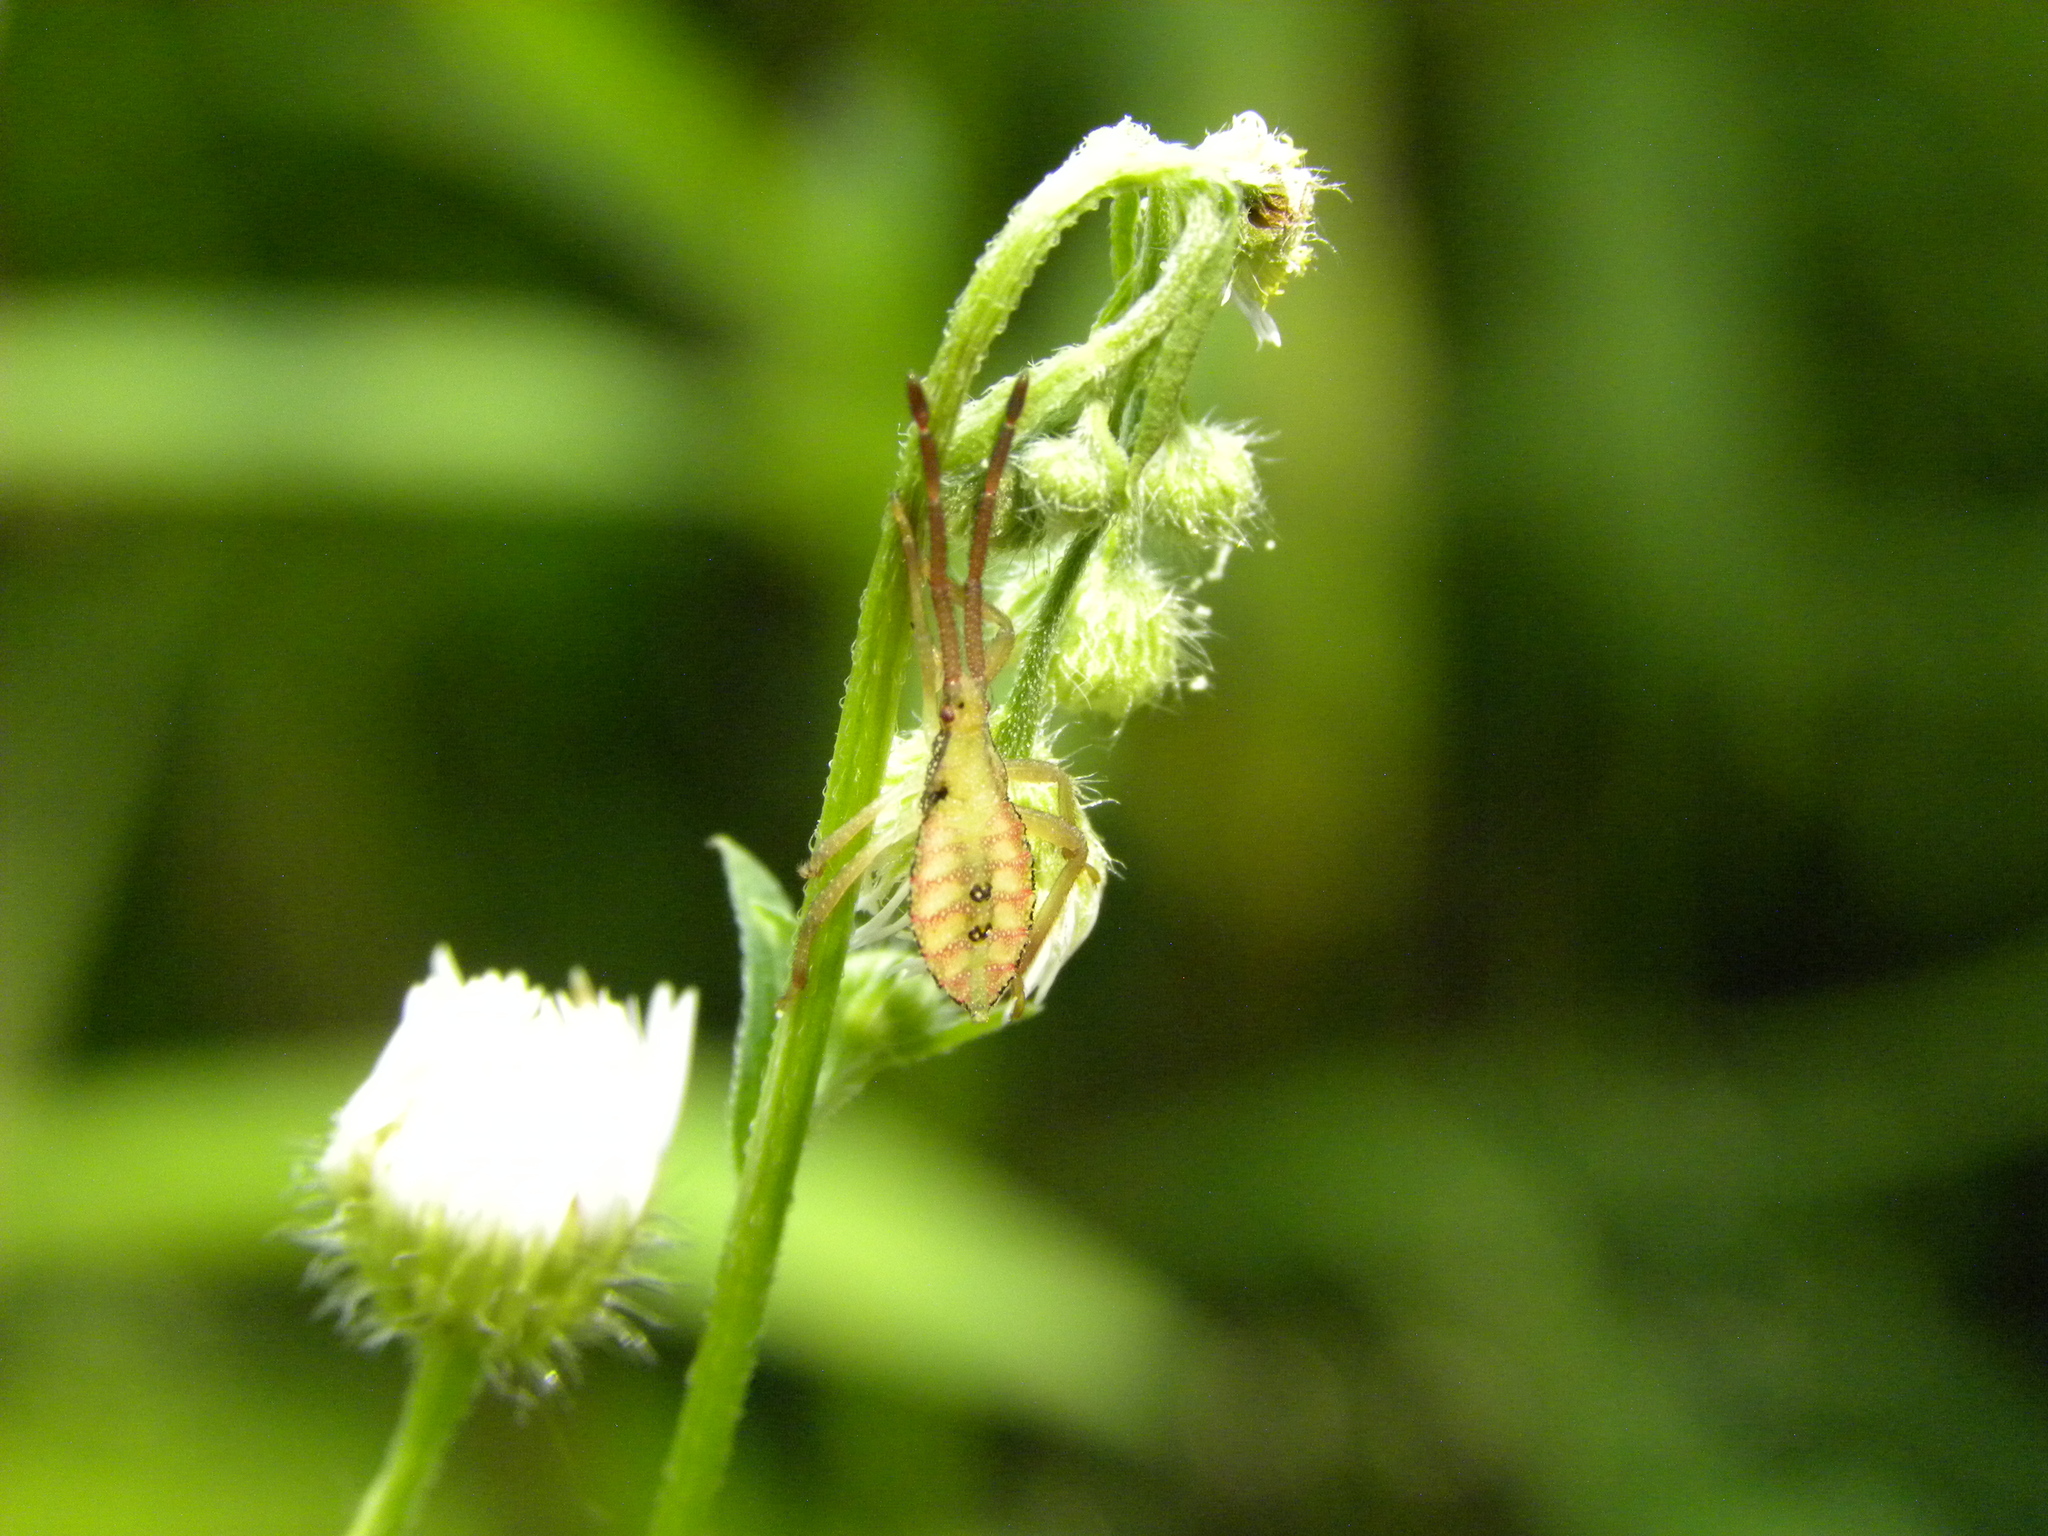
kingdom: Animalia
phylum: Arthropoda
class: Insecta
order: Hemiptera
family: Coreidae
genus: Piezogaster
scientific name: Piezogaster calcarator
